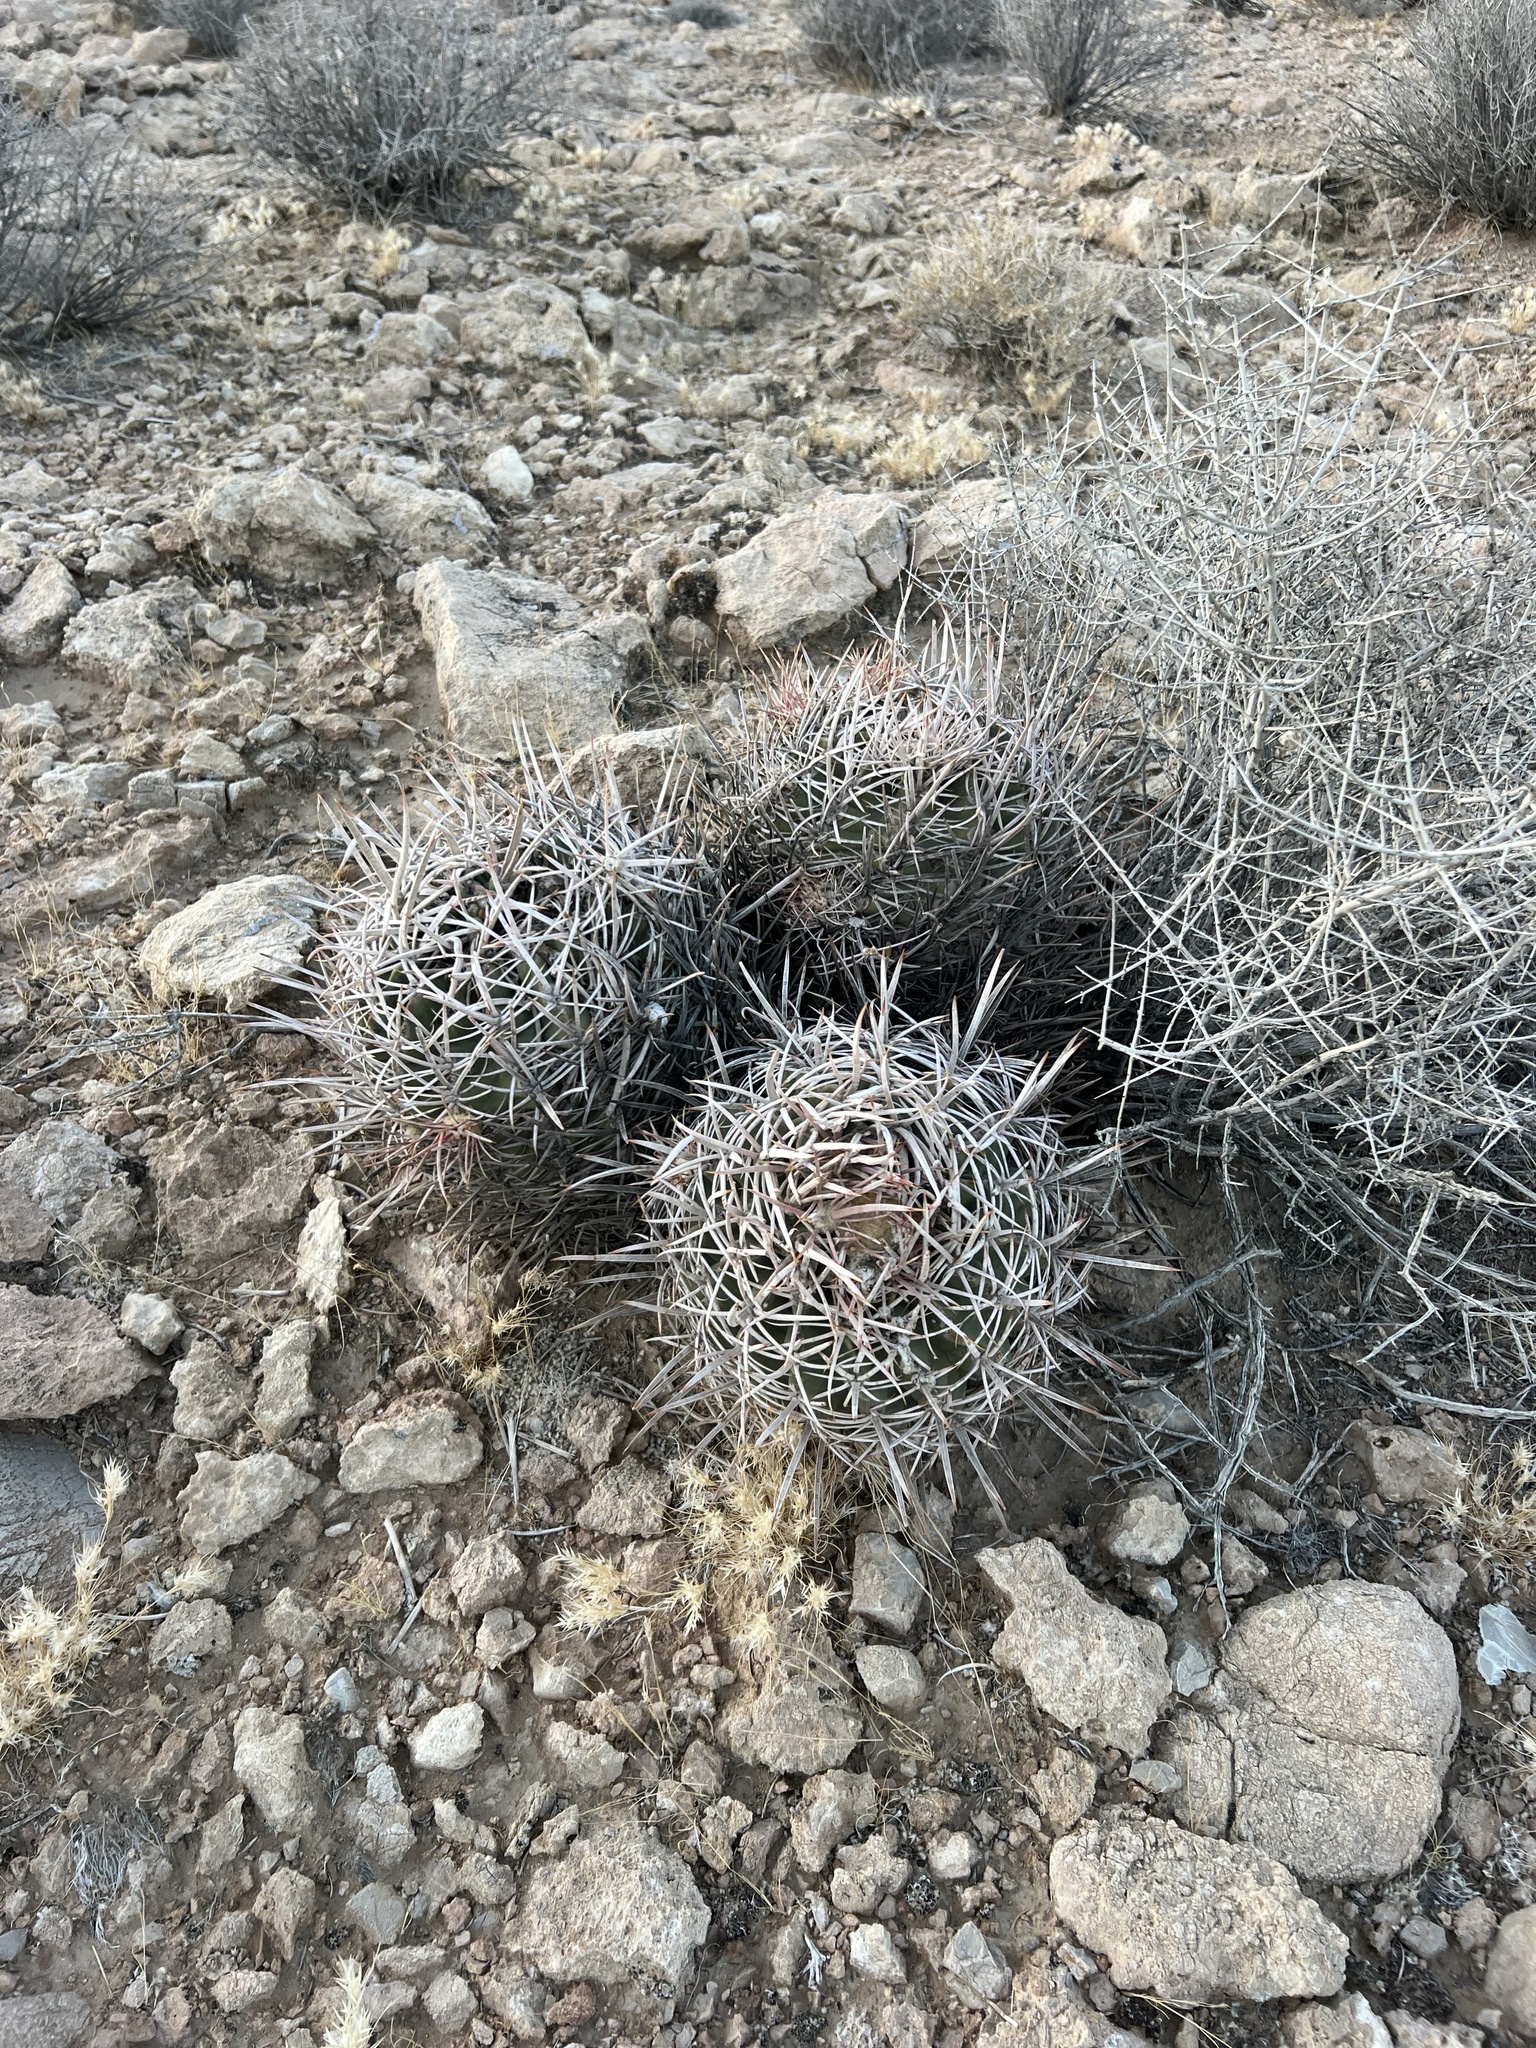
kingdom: Plantae
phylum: Tracheophyta
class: Magnoliopsida
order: Caryophyllales
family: Cactaceae
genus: Echinocactus
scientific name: Echinocactus polycephalus
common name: Cottontop cactus
